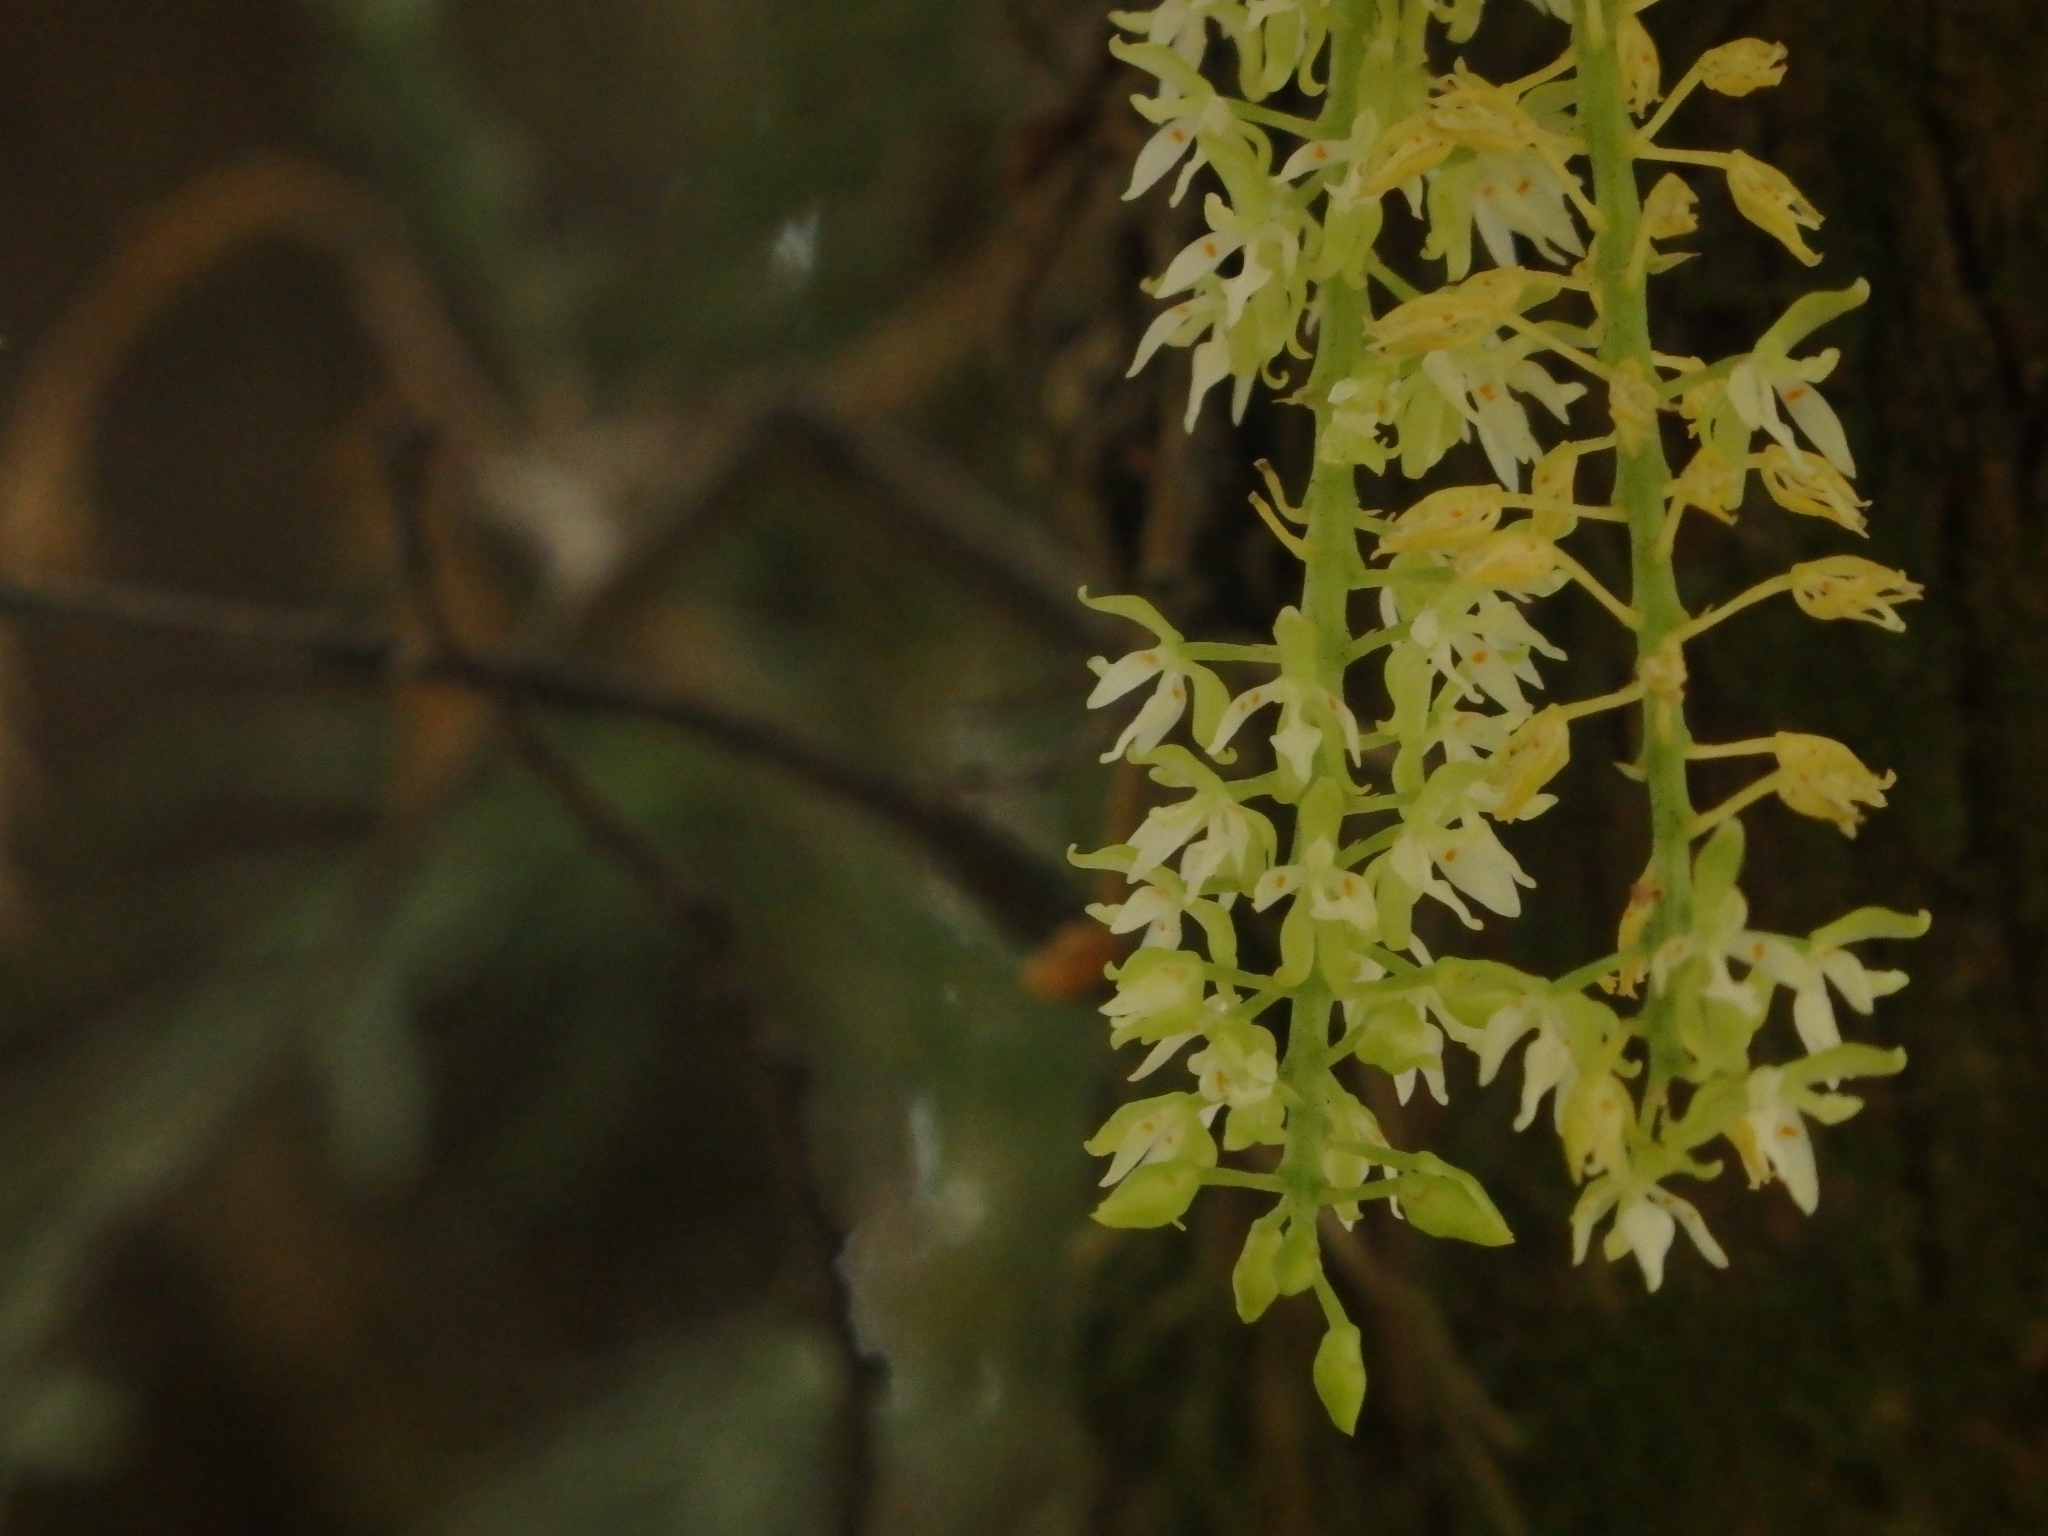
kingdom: Plantae
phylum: Tracheophyta
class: Liliopsida
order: Asparagales
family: Orchidaceae
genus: Notylia
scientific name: Notylia barkeri
